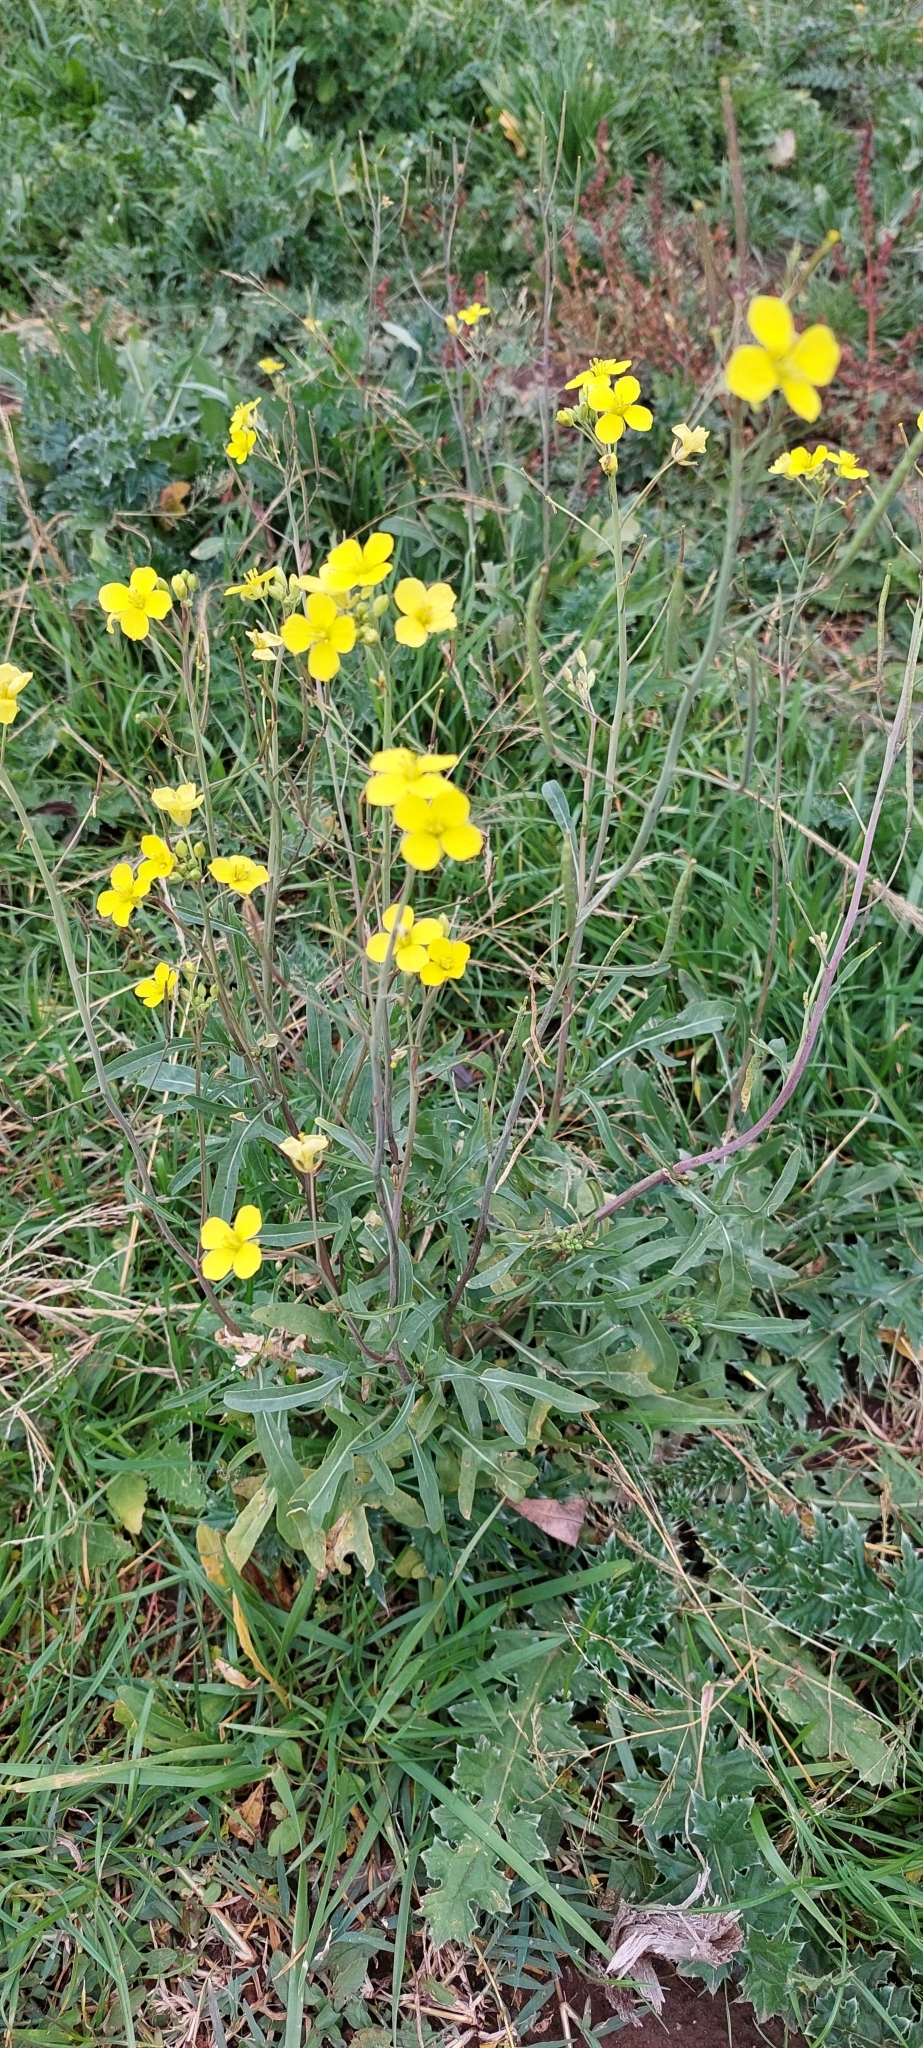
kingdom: Plantae
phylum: Tracheophyta
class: Magnoliopsida
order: Brassicales
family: Brassicaceae
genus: Diplotaxis
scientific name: Diplotaxis tenuifolia
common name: Perennial wall-rocket
